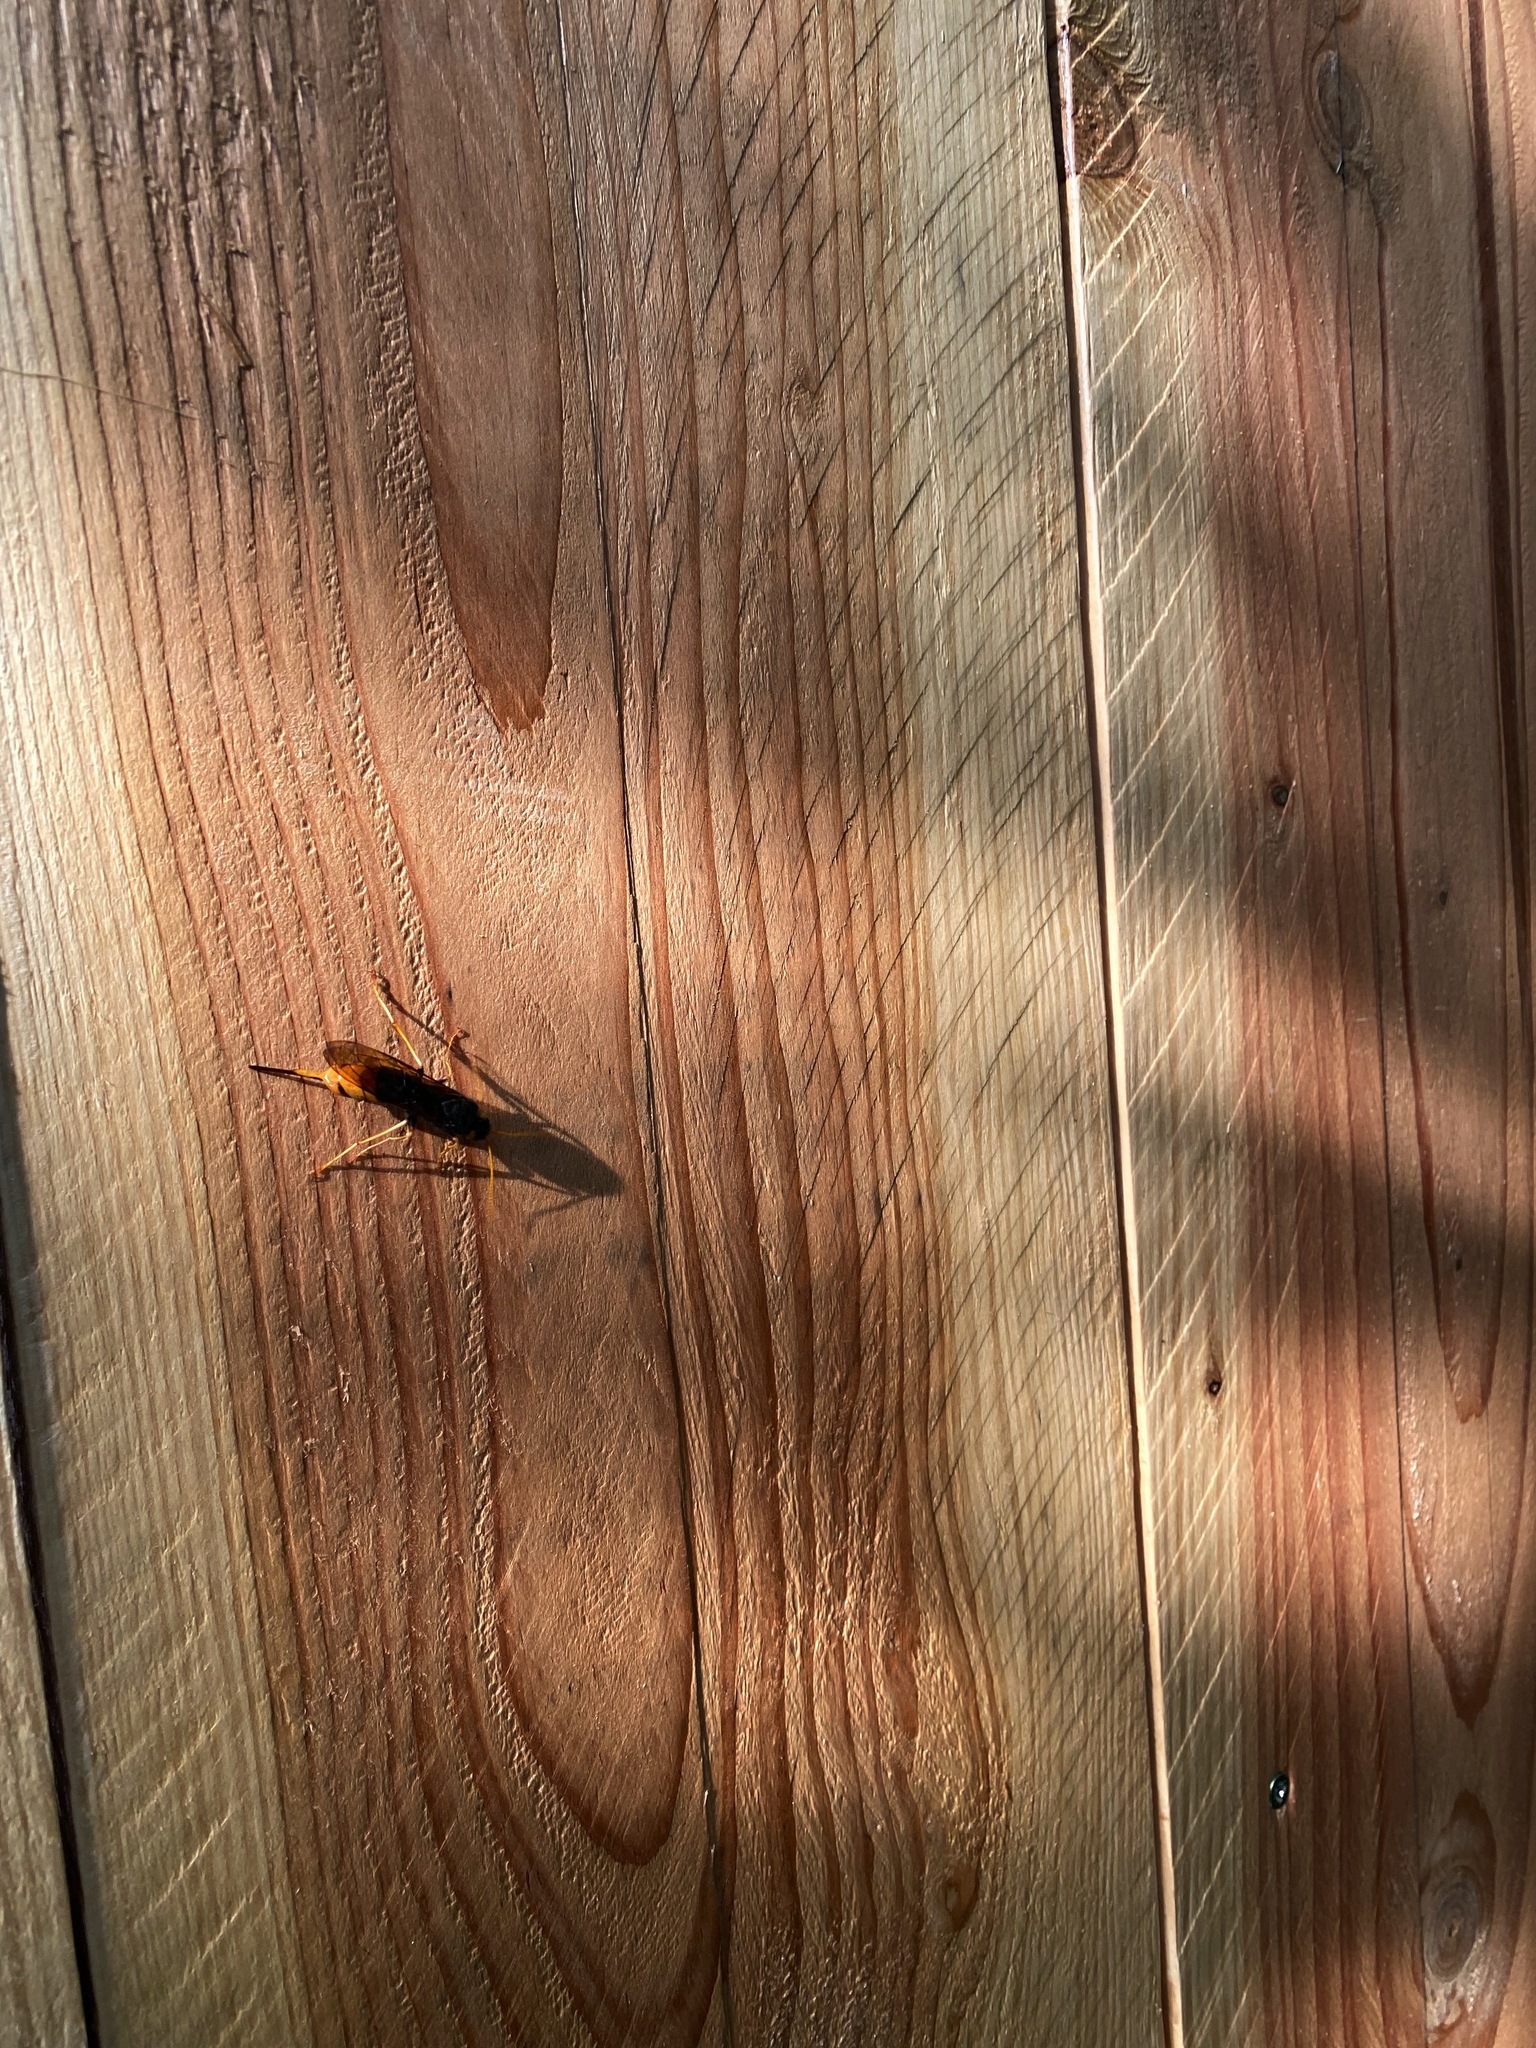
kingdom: Animalia
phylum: Arthropoda
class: Insecta
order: Hymenoptera
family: Siricidae
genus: Urocerus
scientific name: Urocerus gigas
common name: Giant woodwasp
